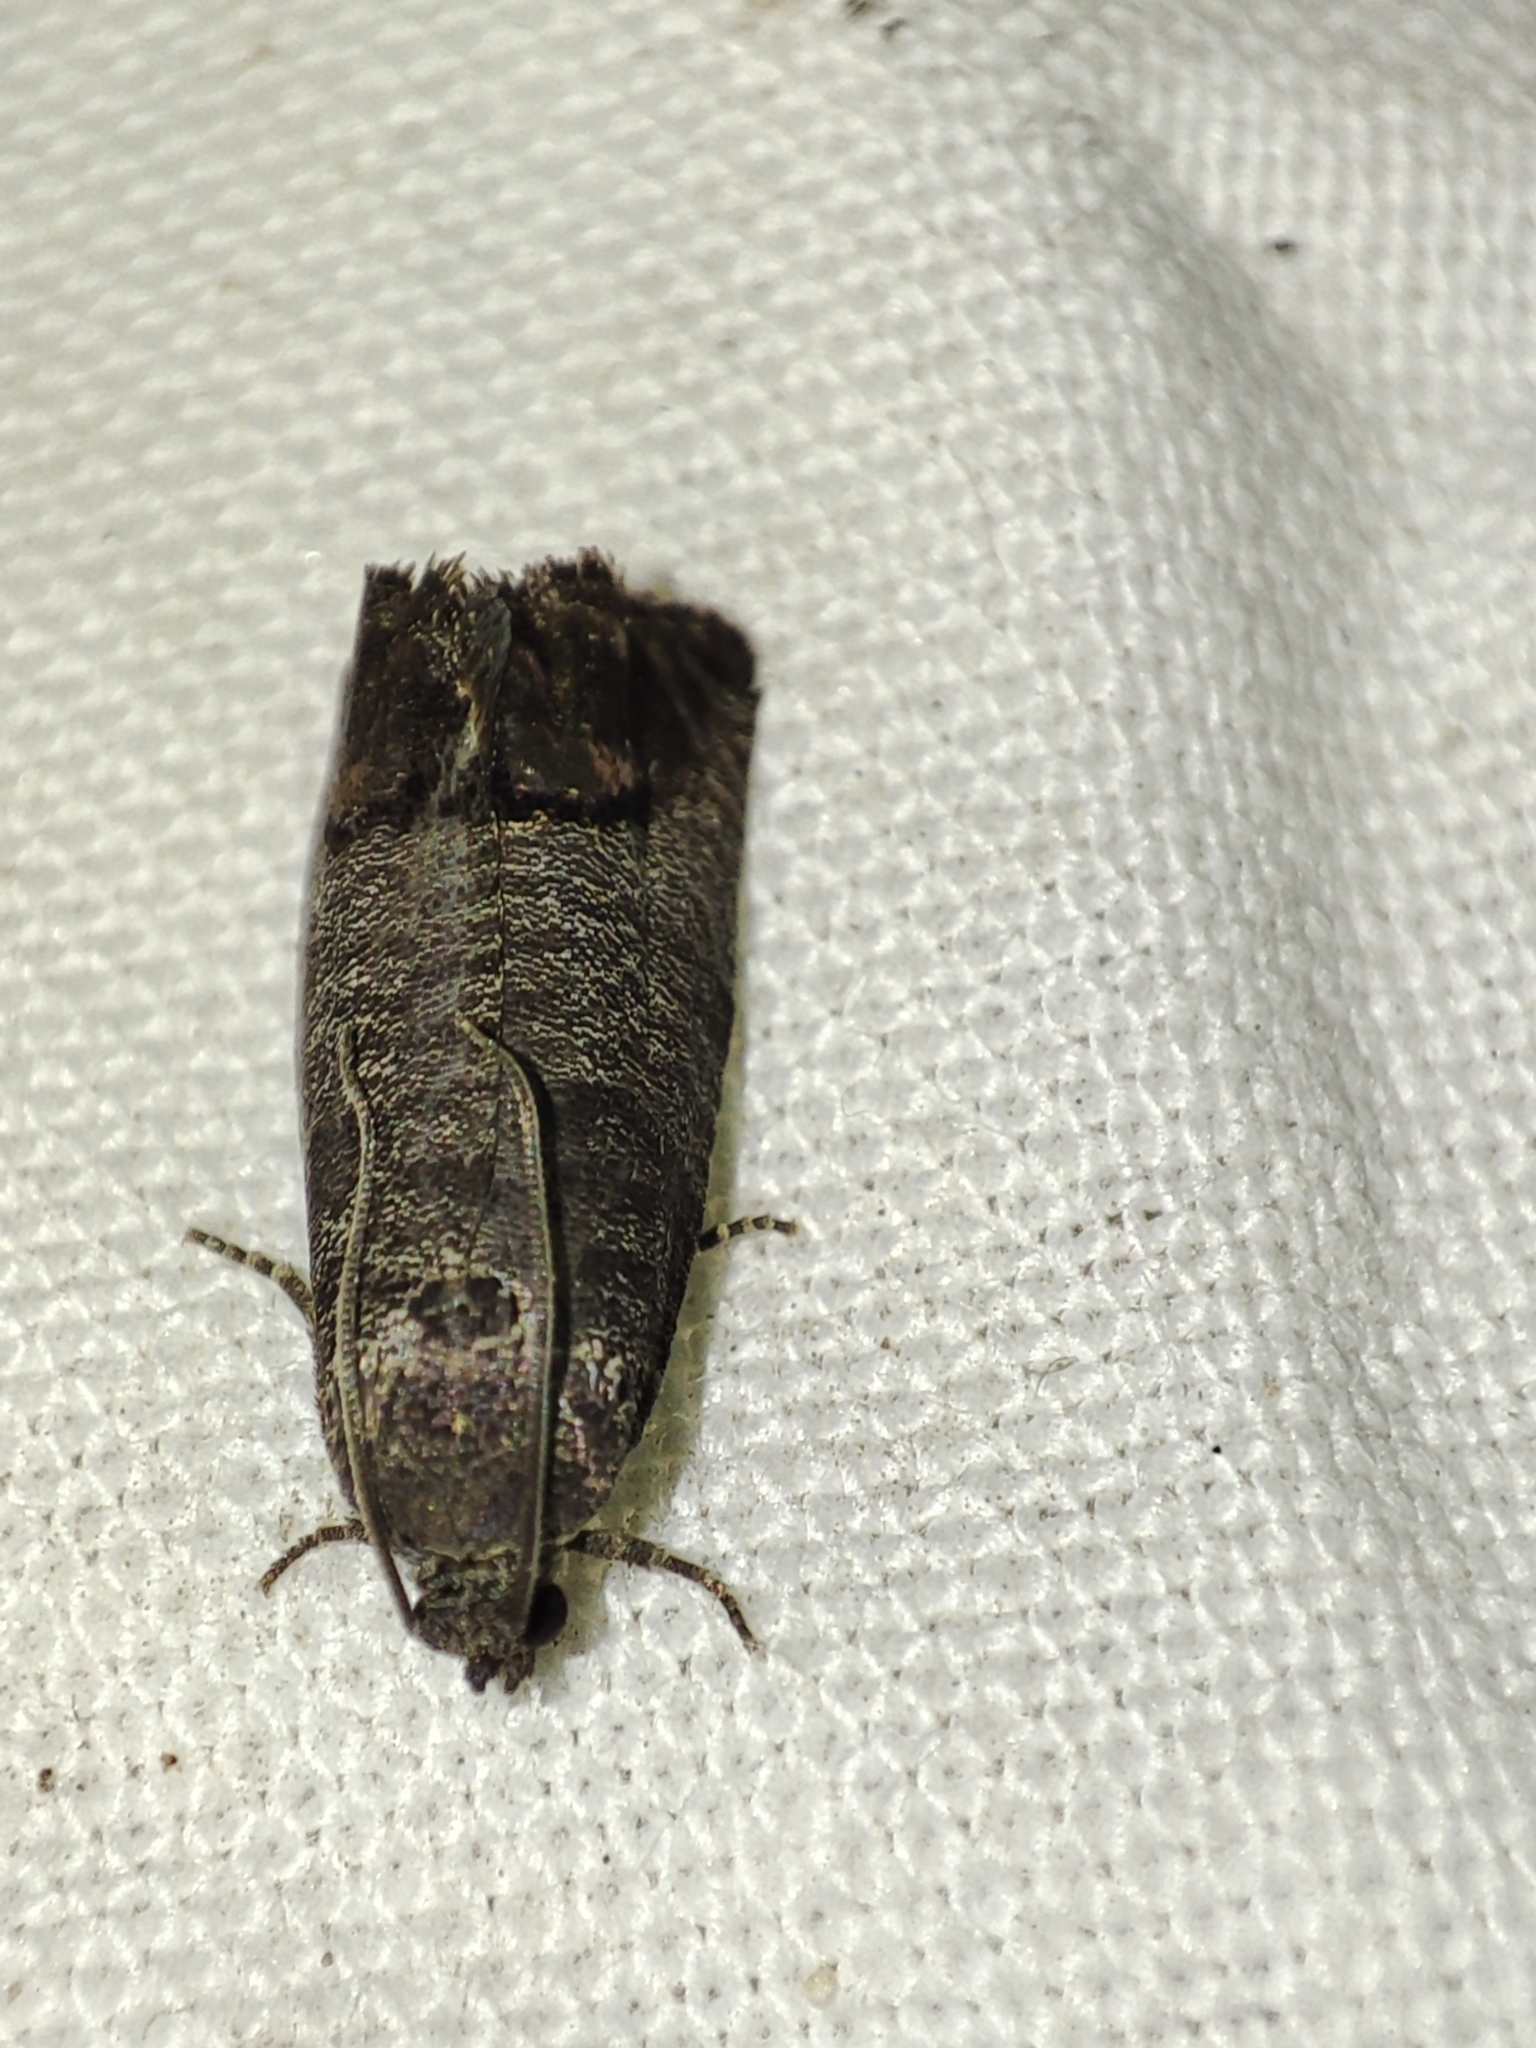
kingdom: Animalia
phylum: Arthropoda
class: Insecta
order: Lepidoptera
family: Tortricidae
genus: Cydia
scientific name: Cydia pomonella
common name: Codling moth
